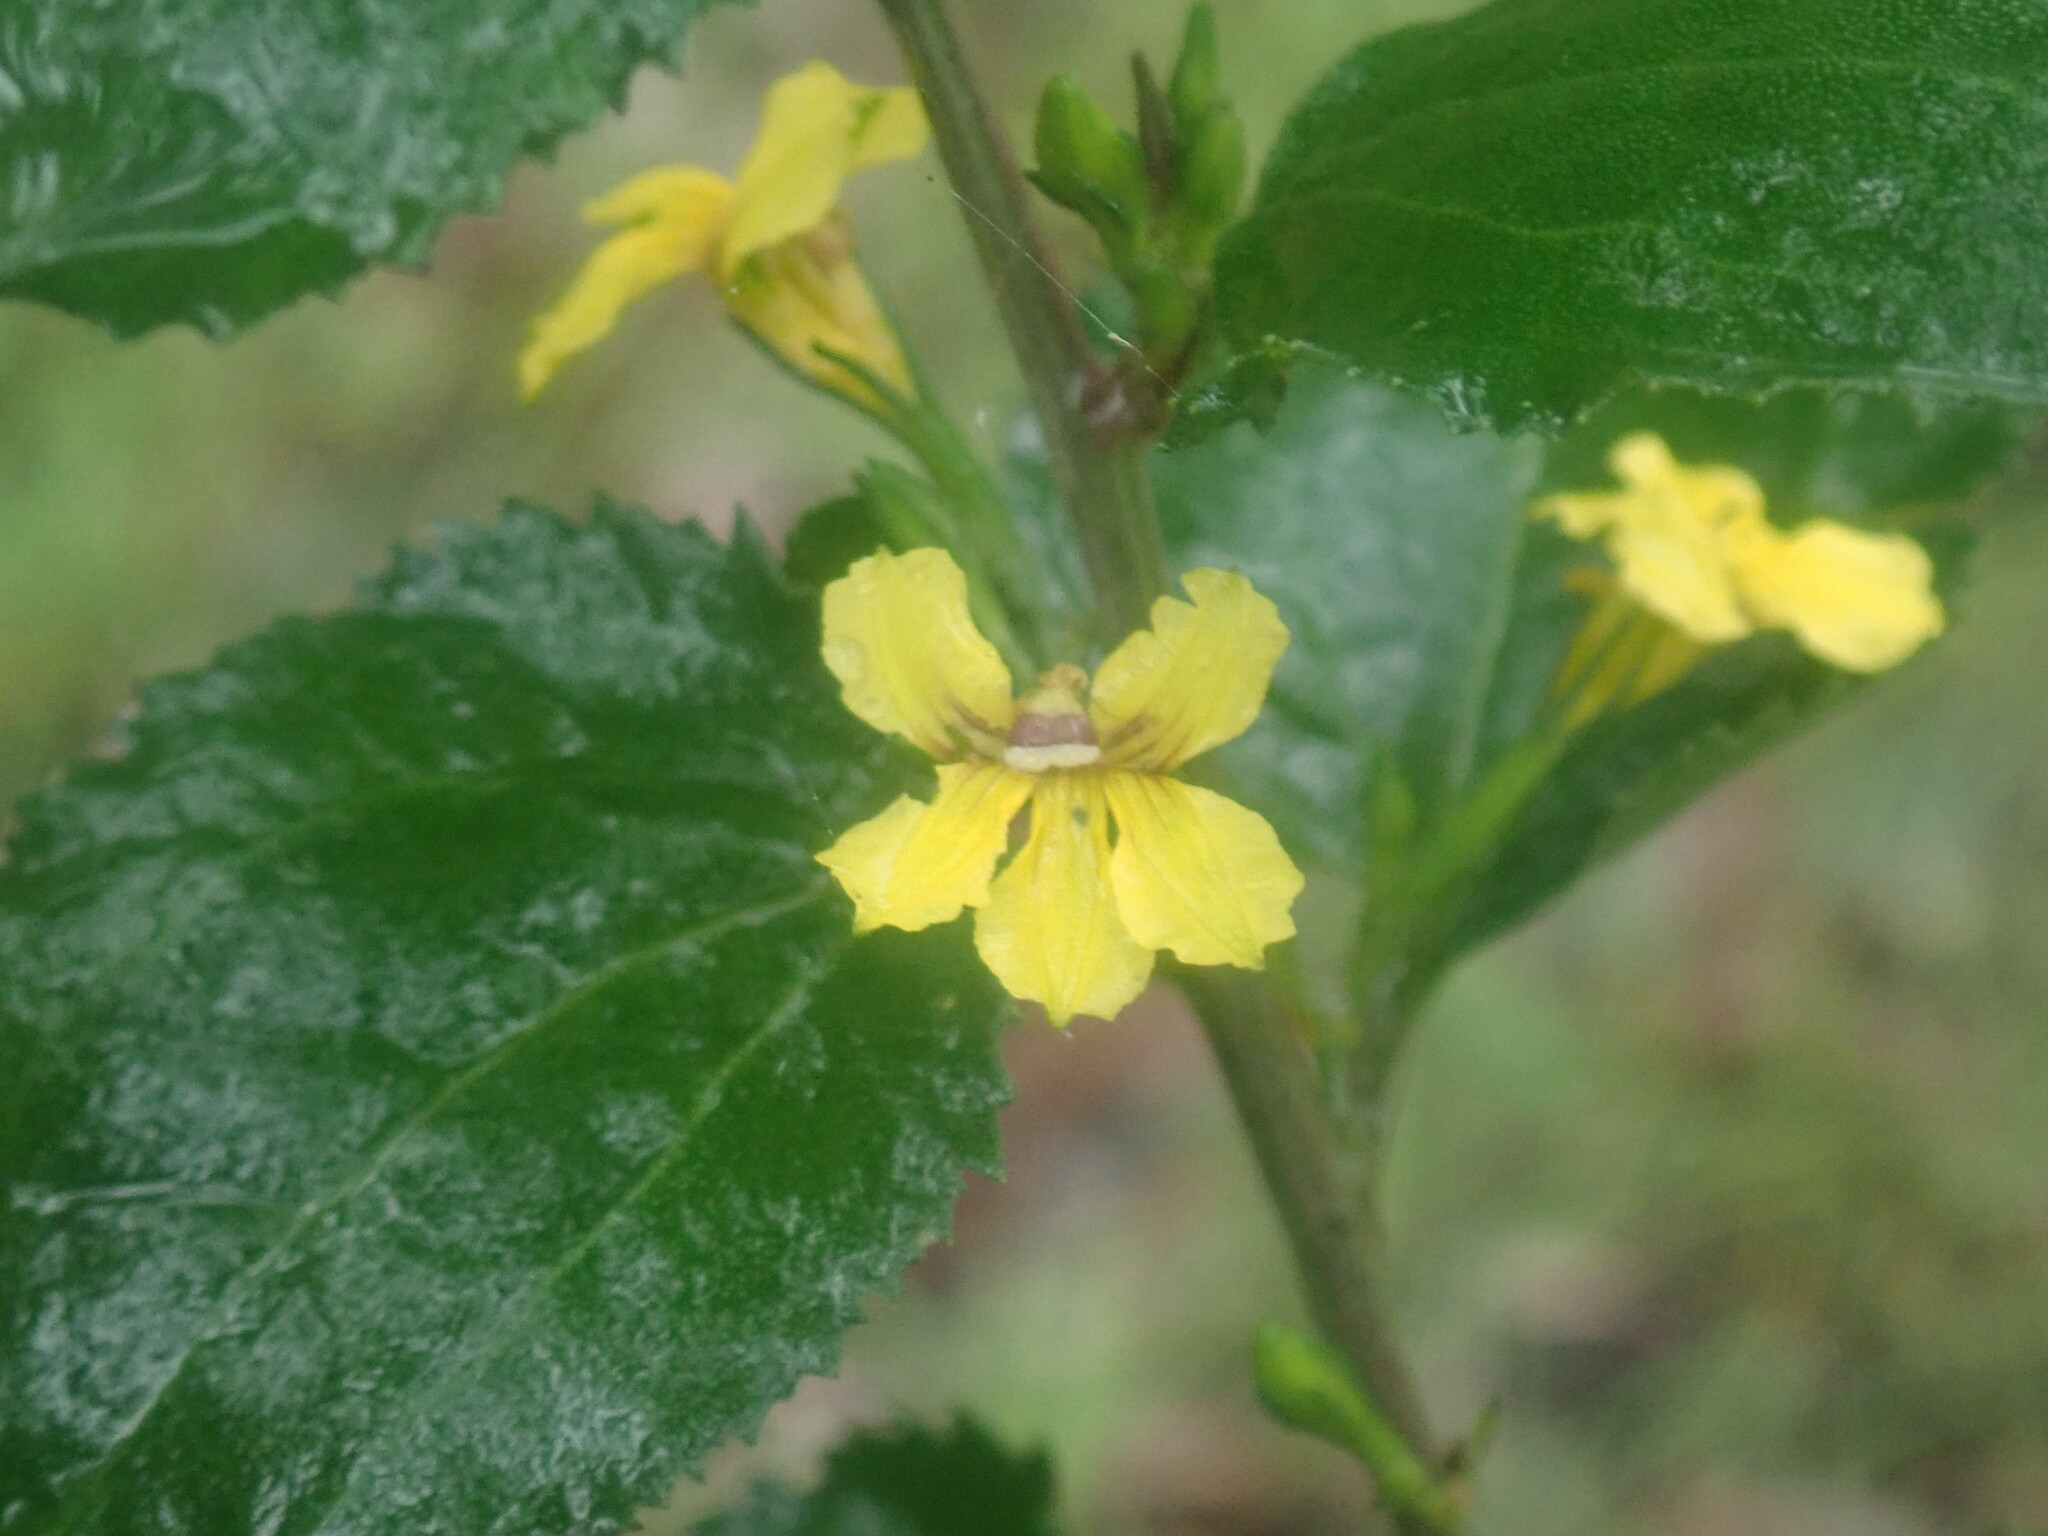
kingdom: Plantae
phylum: Tracheophyta
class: Magnoliopsida
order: Asterales
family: Goodeniaceae
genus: Goodenia
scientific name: Goodenia ovata
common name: Hop goodenia
